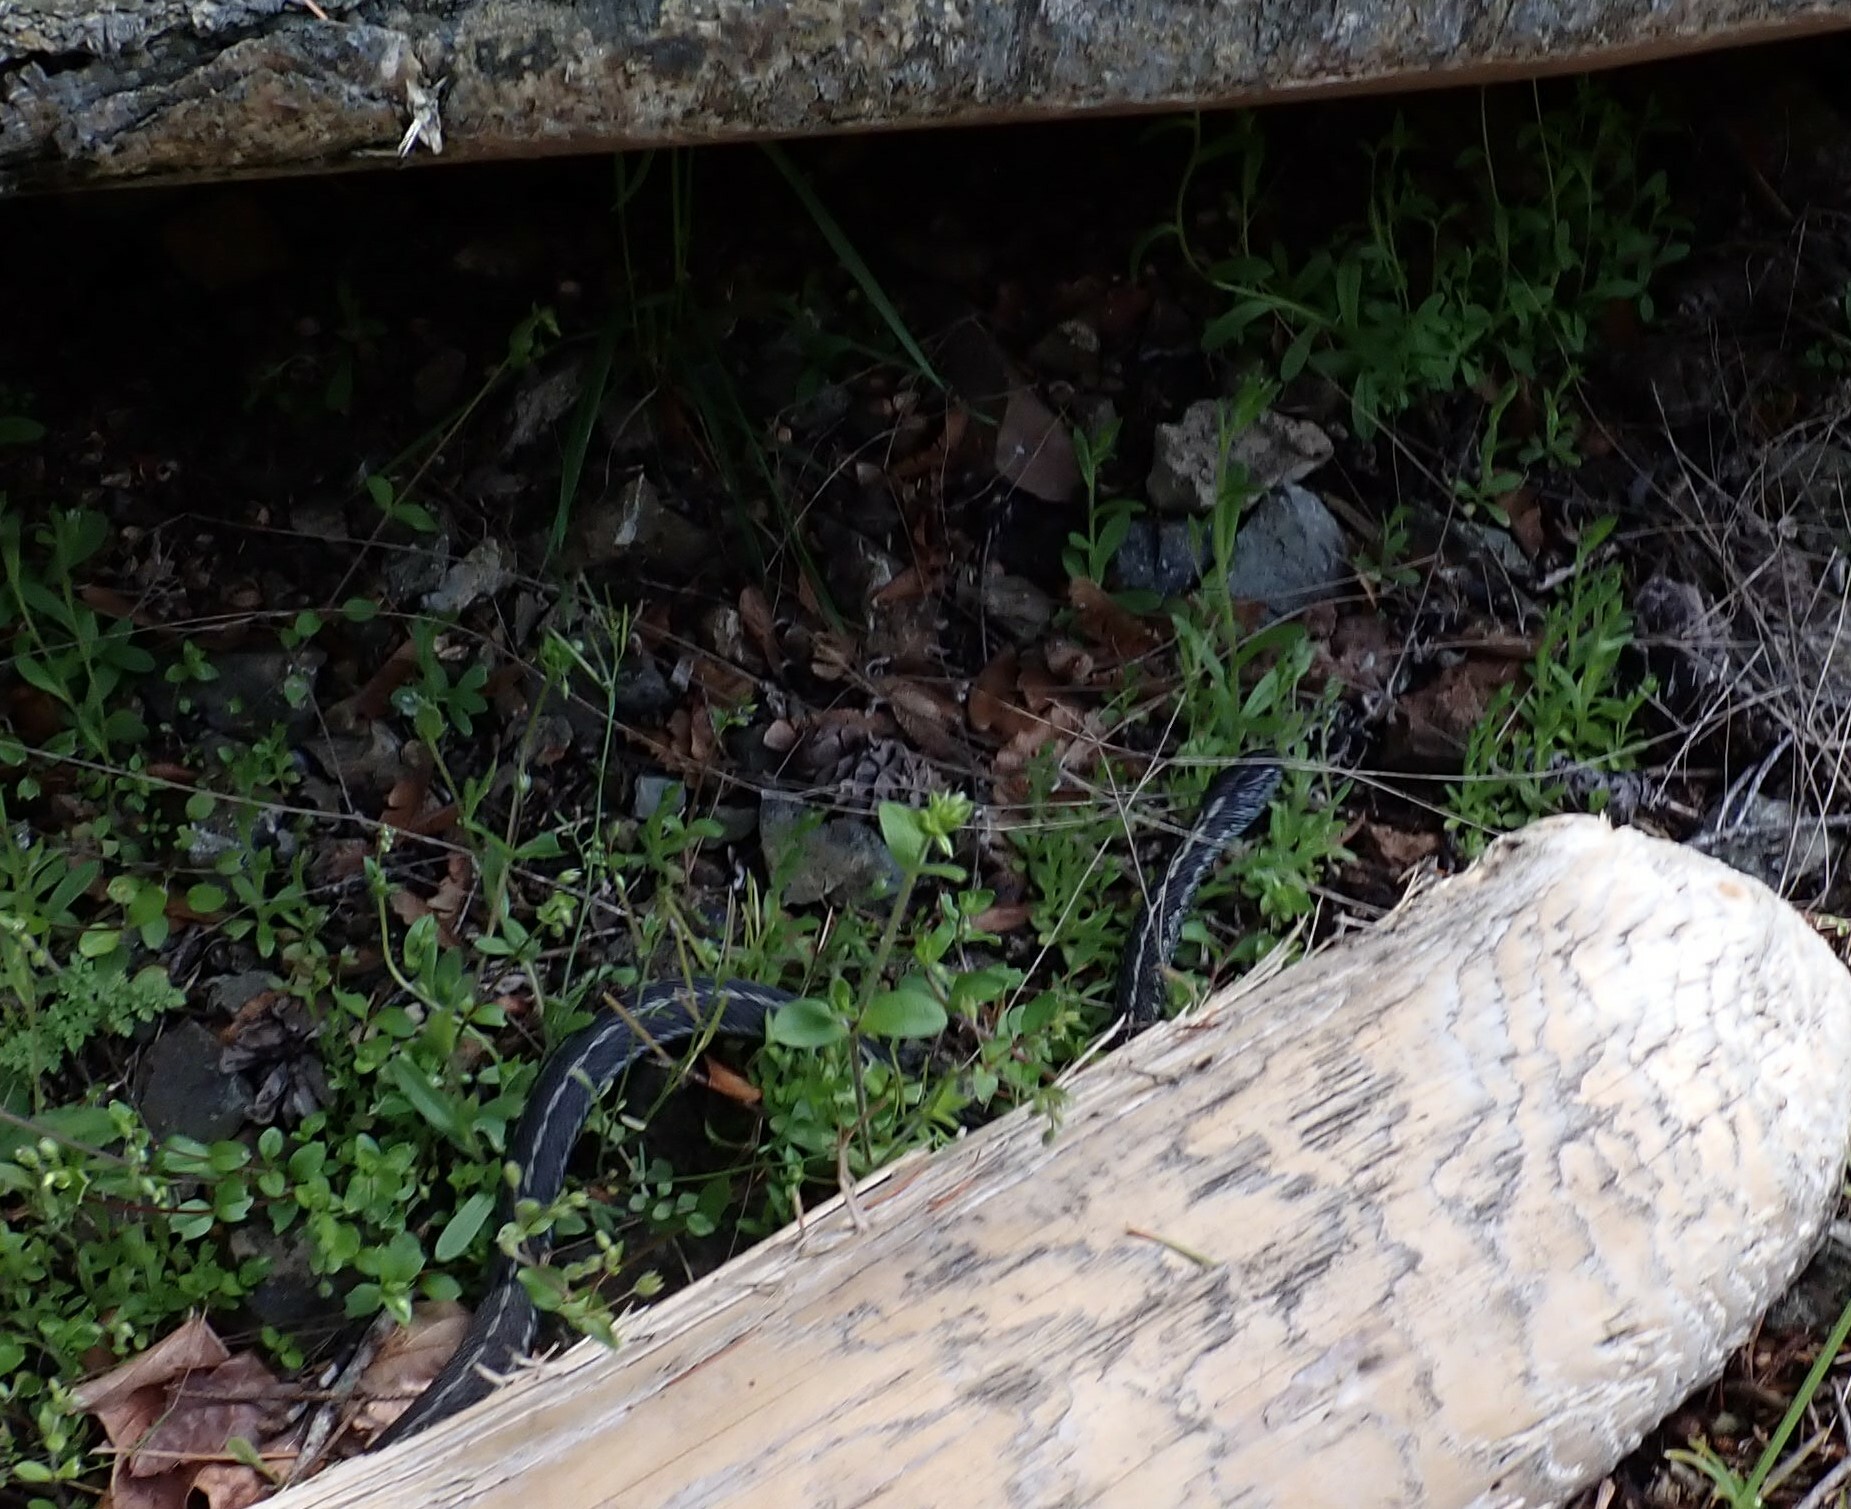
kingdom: Animalia
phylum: Chordata
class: Squamata
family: Colubridae
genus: Thamnophis
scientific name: Thamnophis elegans
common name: Western terrestrial garter snake
